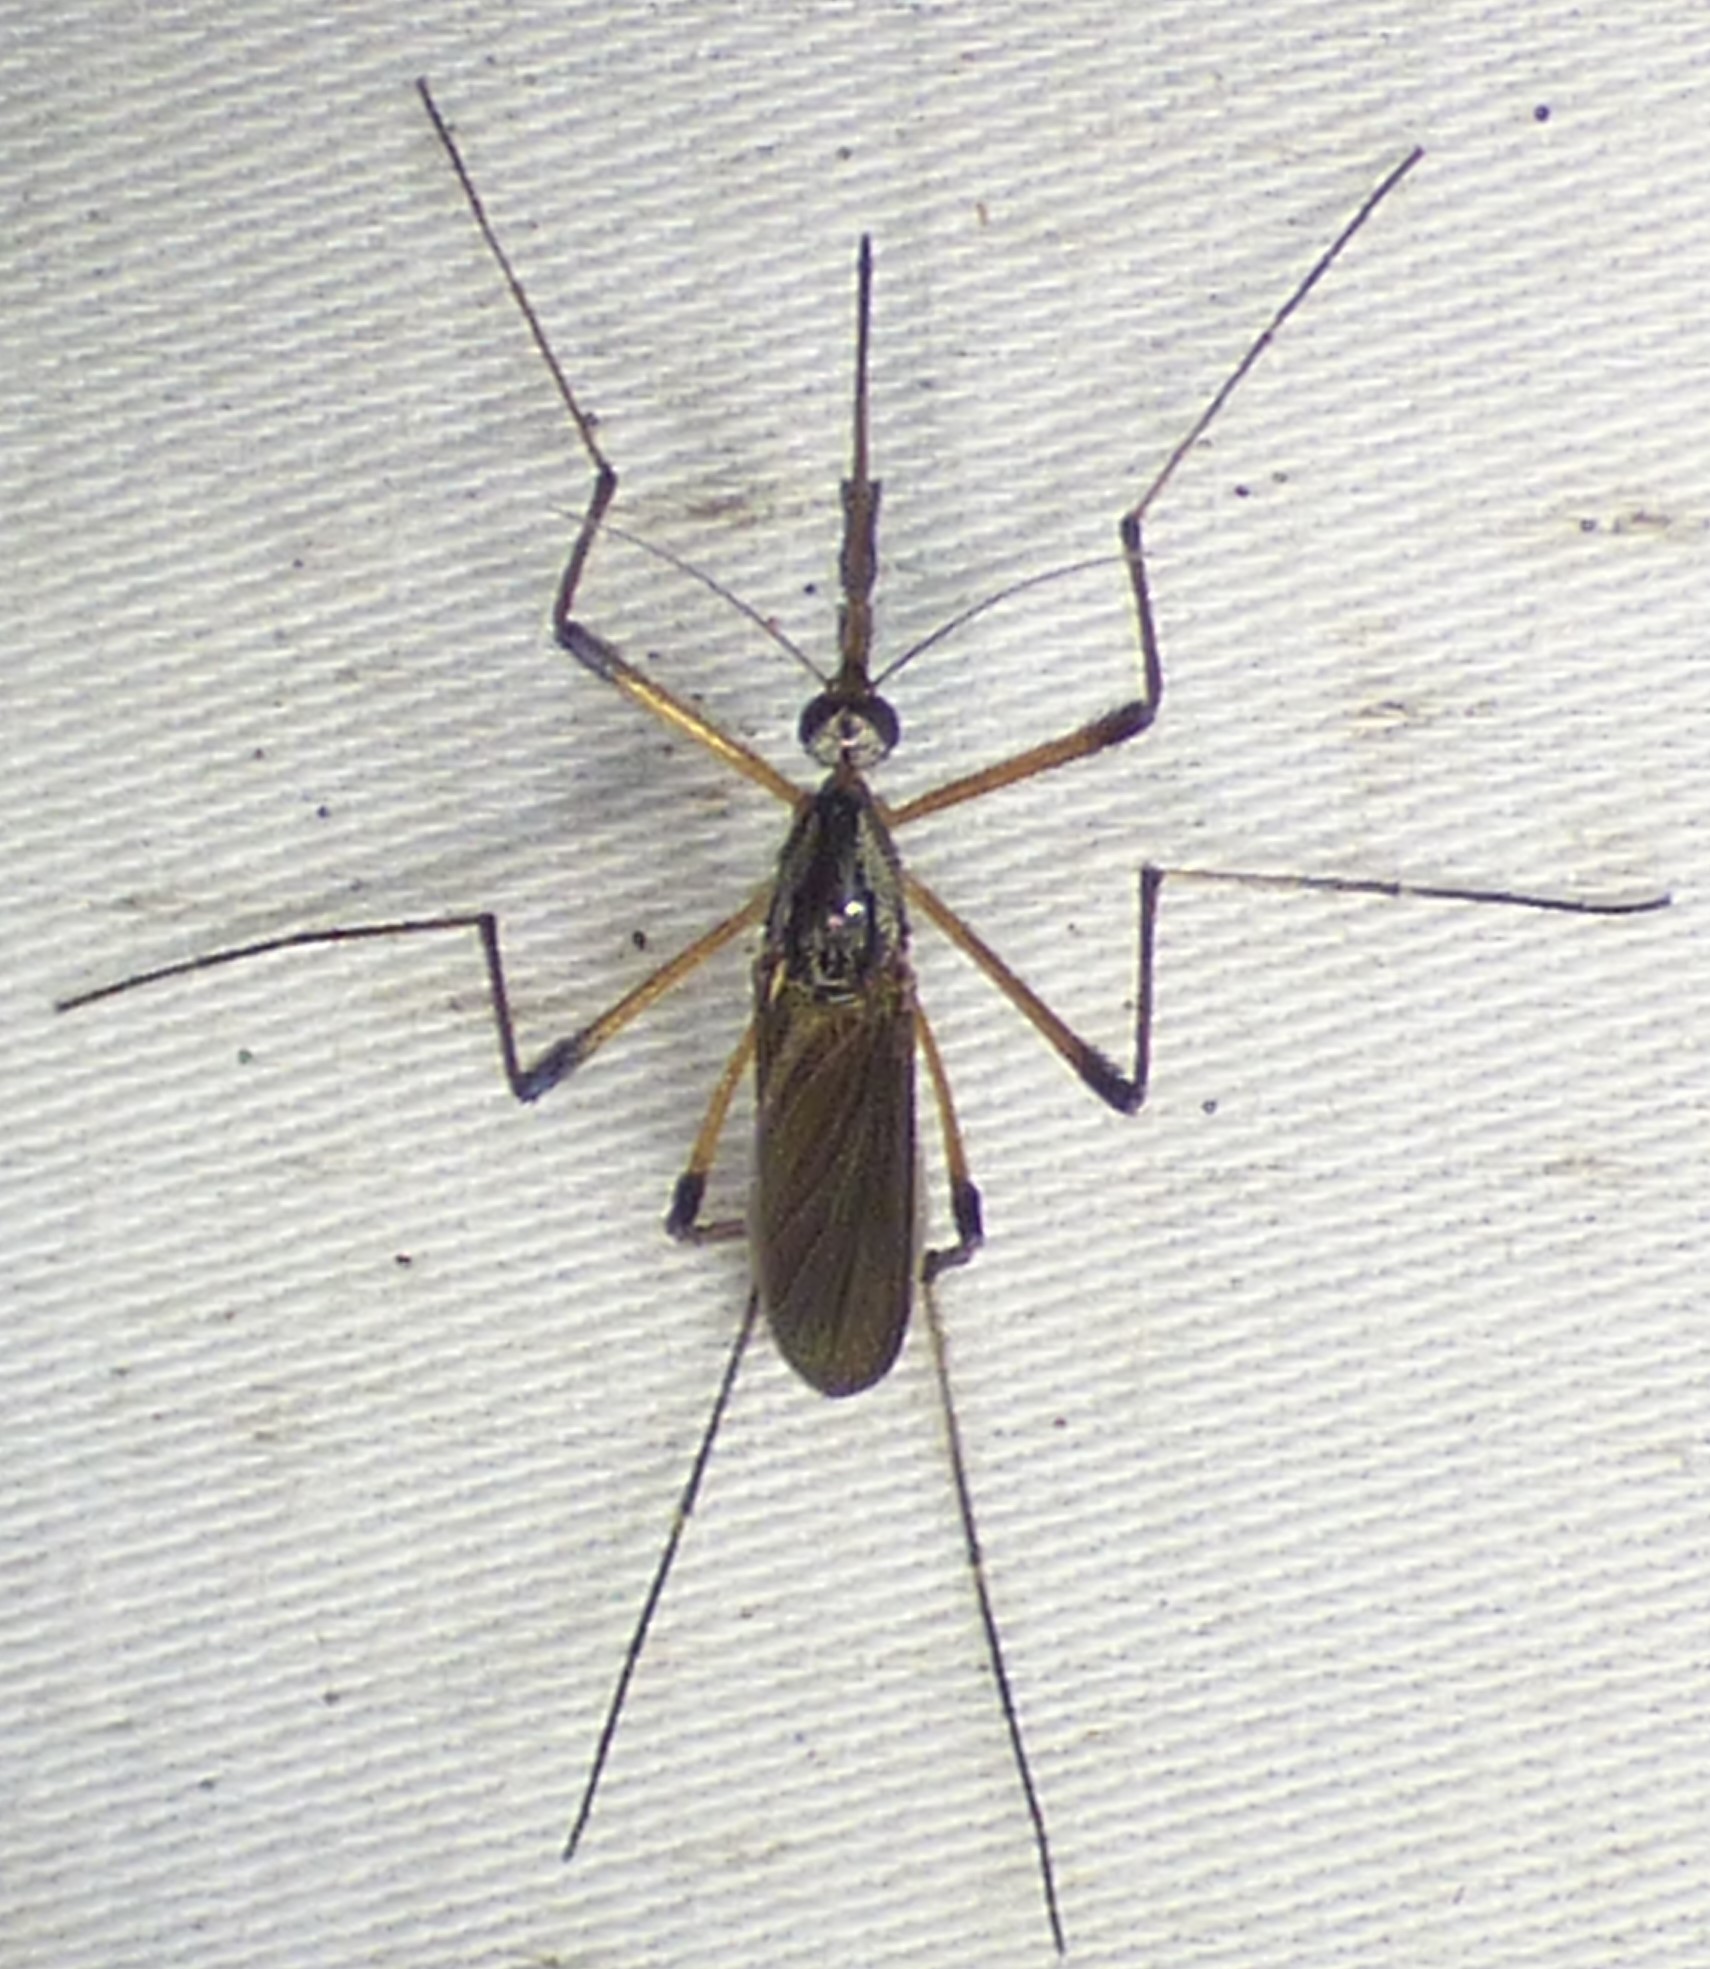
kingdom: Animalia
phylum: Arthropoda
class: Insecta
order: Diptera
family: Culicidae
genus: Psorophora
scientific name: Psorophora howardii
